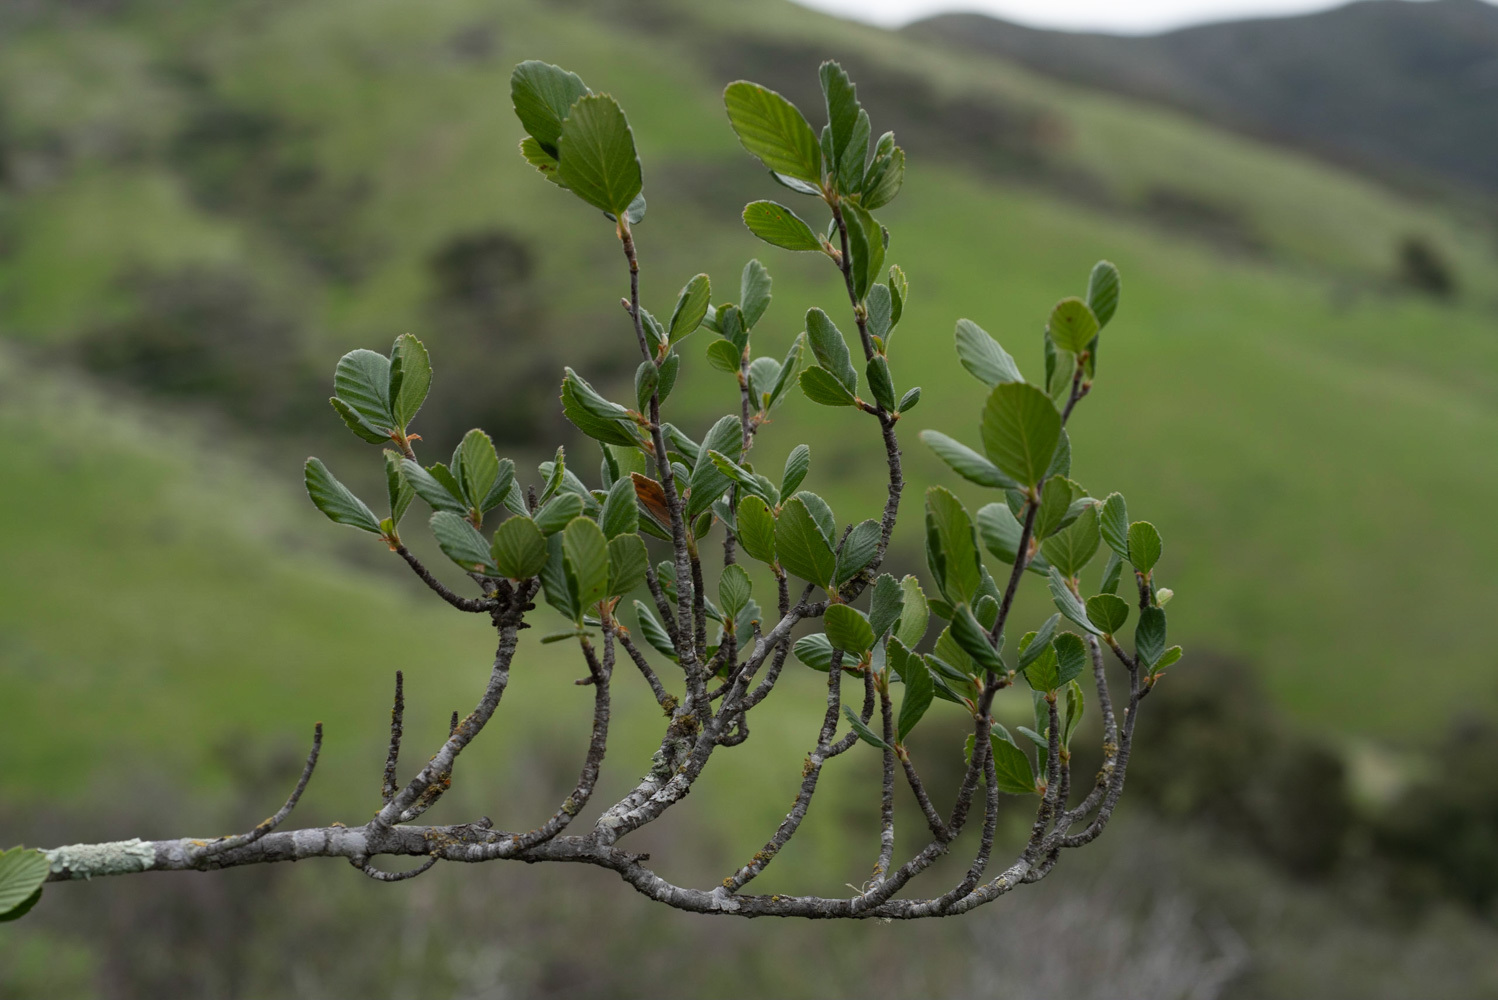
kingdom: Plantae
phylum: Tracheophyta
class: Magnoliopsida
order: Rosales
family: Rosaceae
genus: Cercocarpus
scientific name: Cercocarpus betuloides
